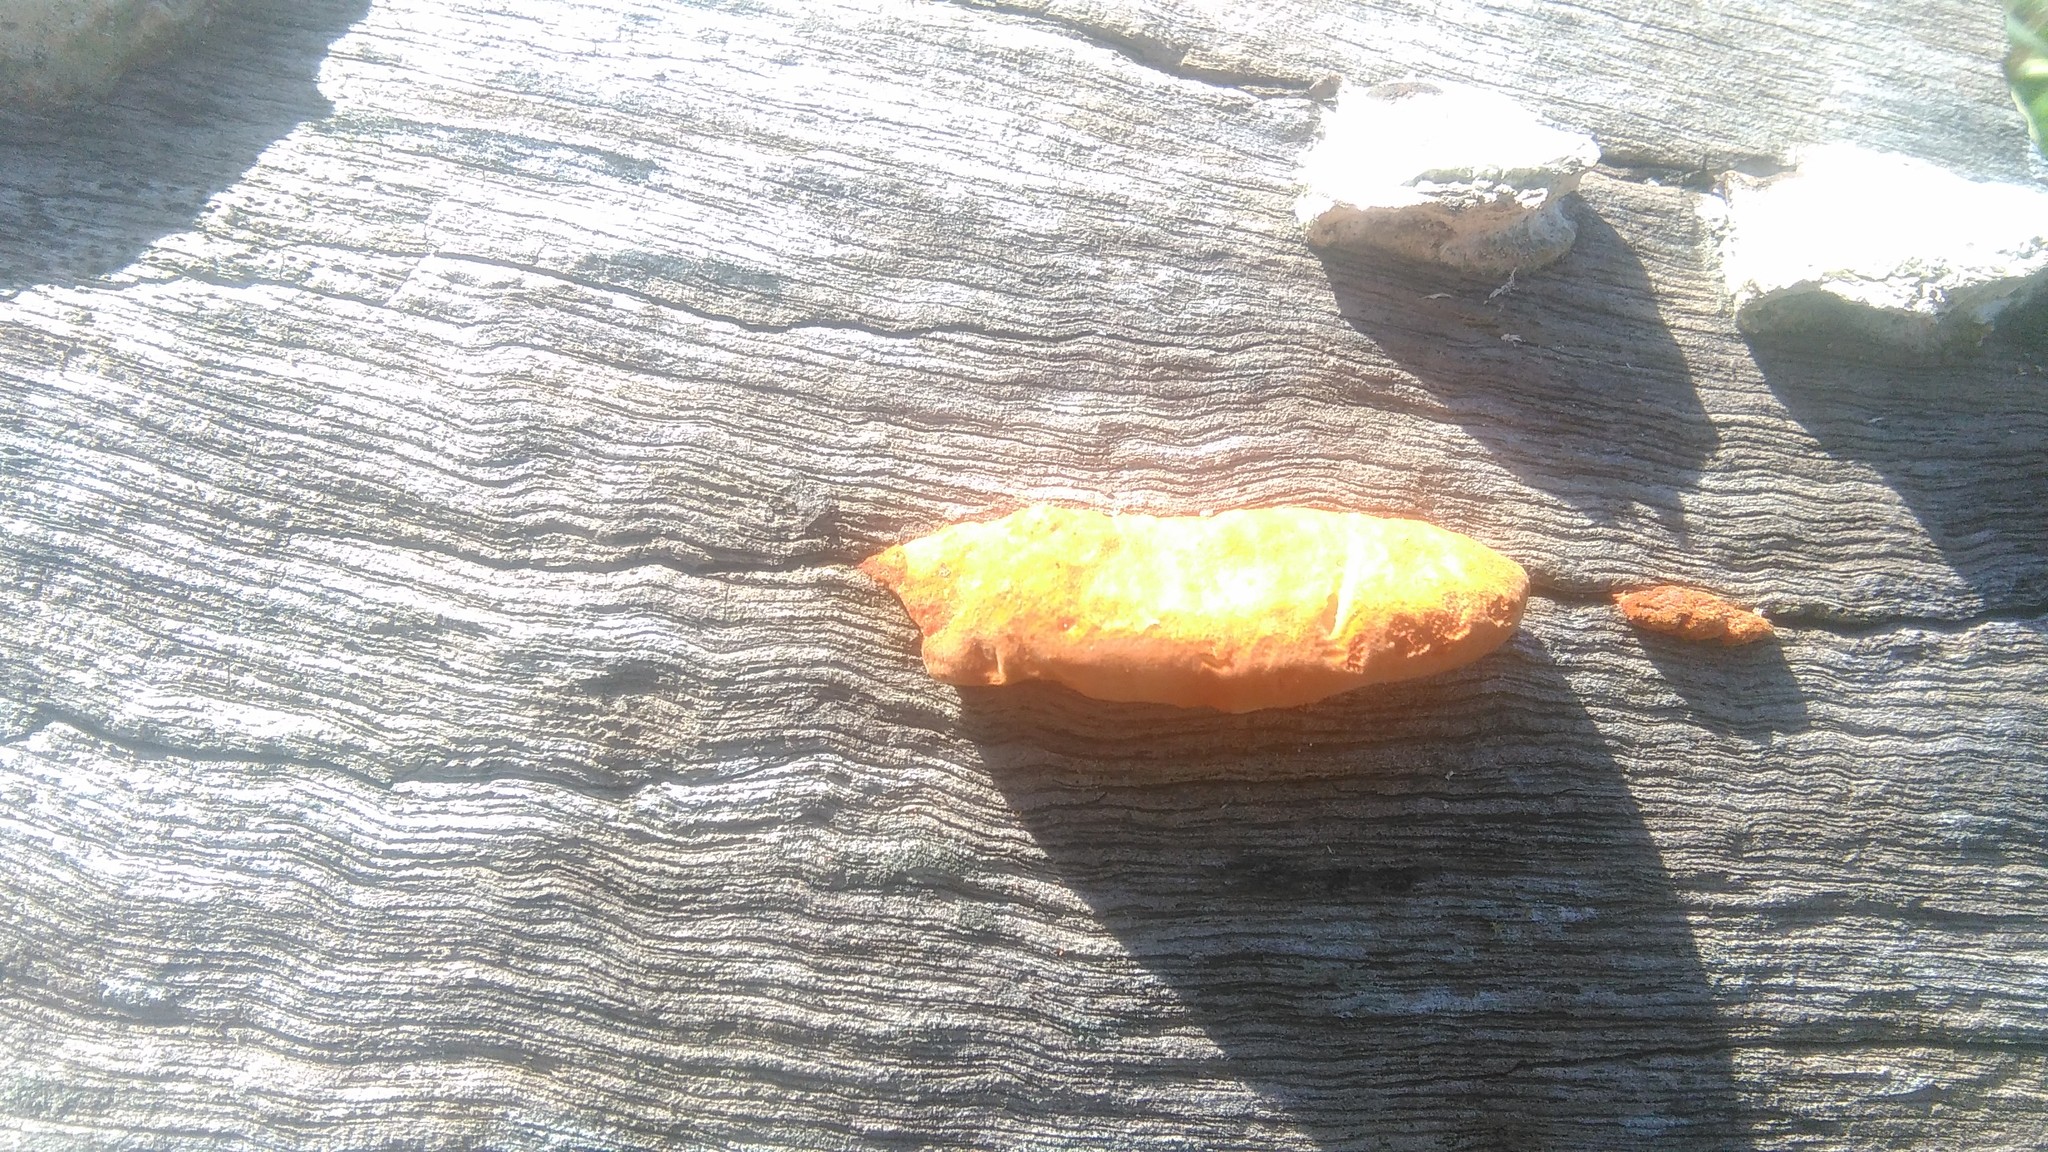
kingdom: Fungi
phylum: Basidiomycota
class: Agaricomycetes
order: Polyporales
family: Polyporaceae
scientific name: Polyporaceae
